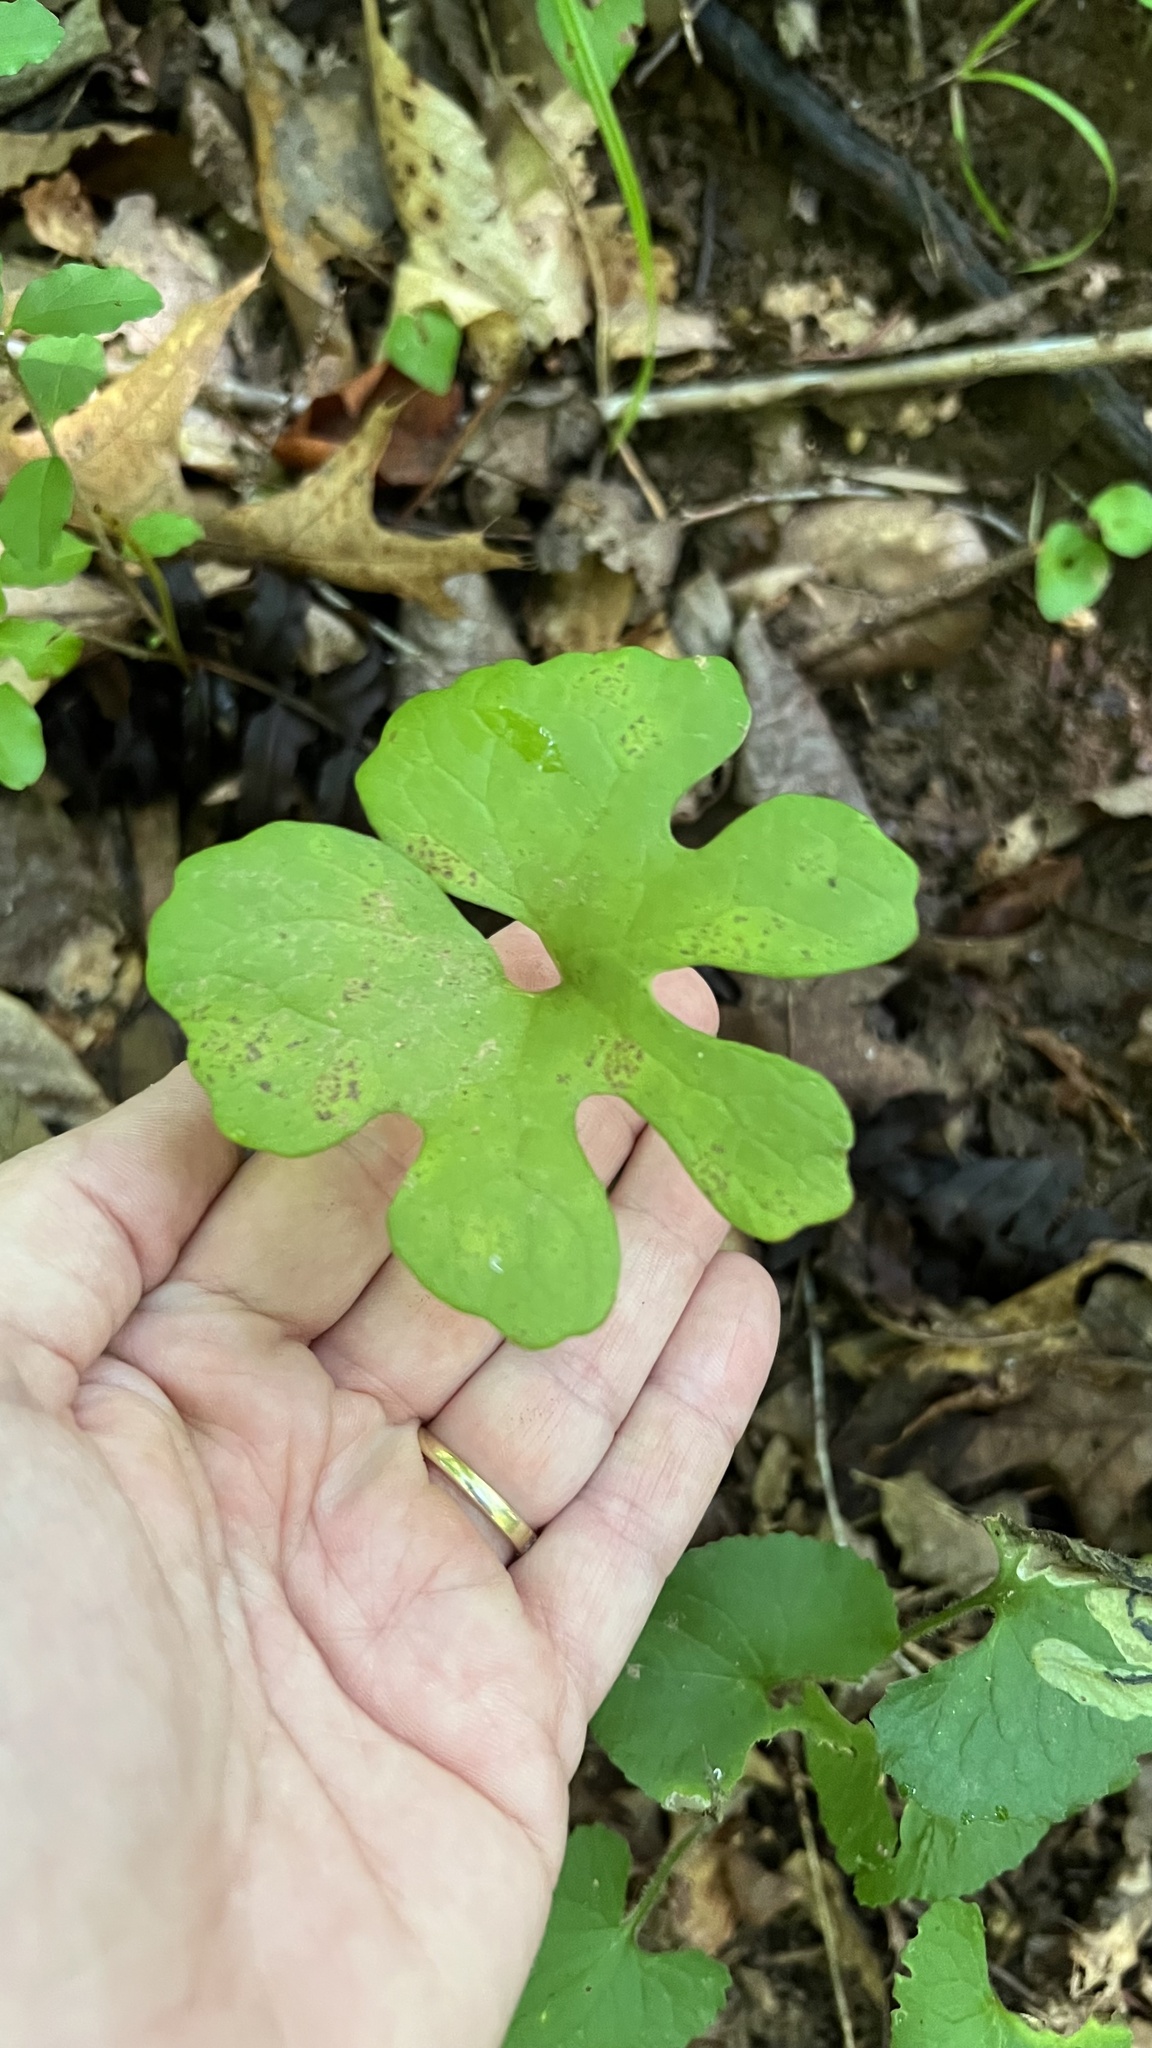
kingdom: Plantae
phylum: Tracheophyta
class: Magnoliopsida
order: Ranunculales
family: Papaveraceae
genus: Sanguinaria
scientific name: Sanguinaria canadensis
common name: Bloodroot
